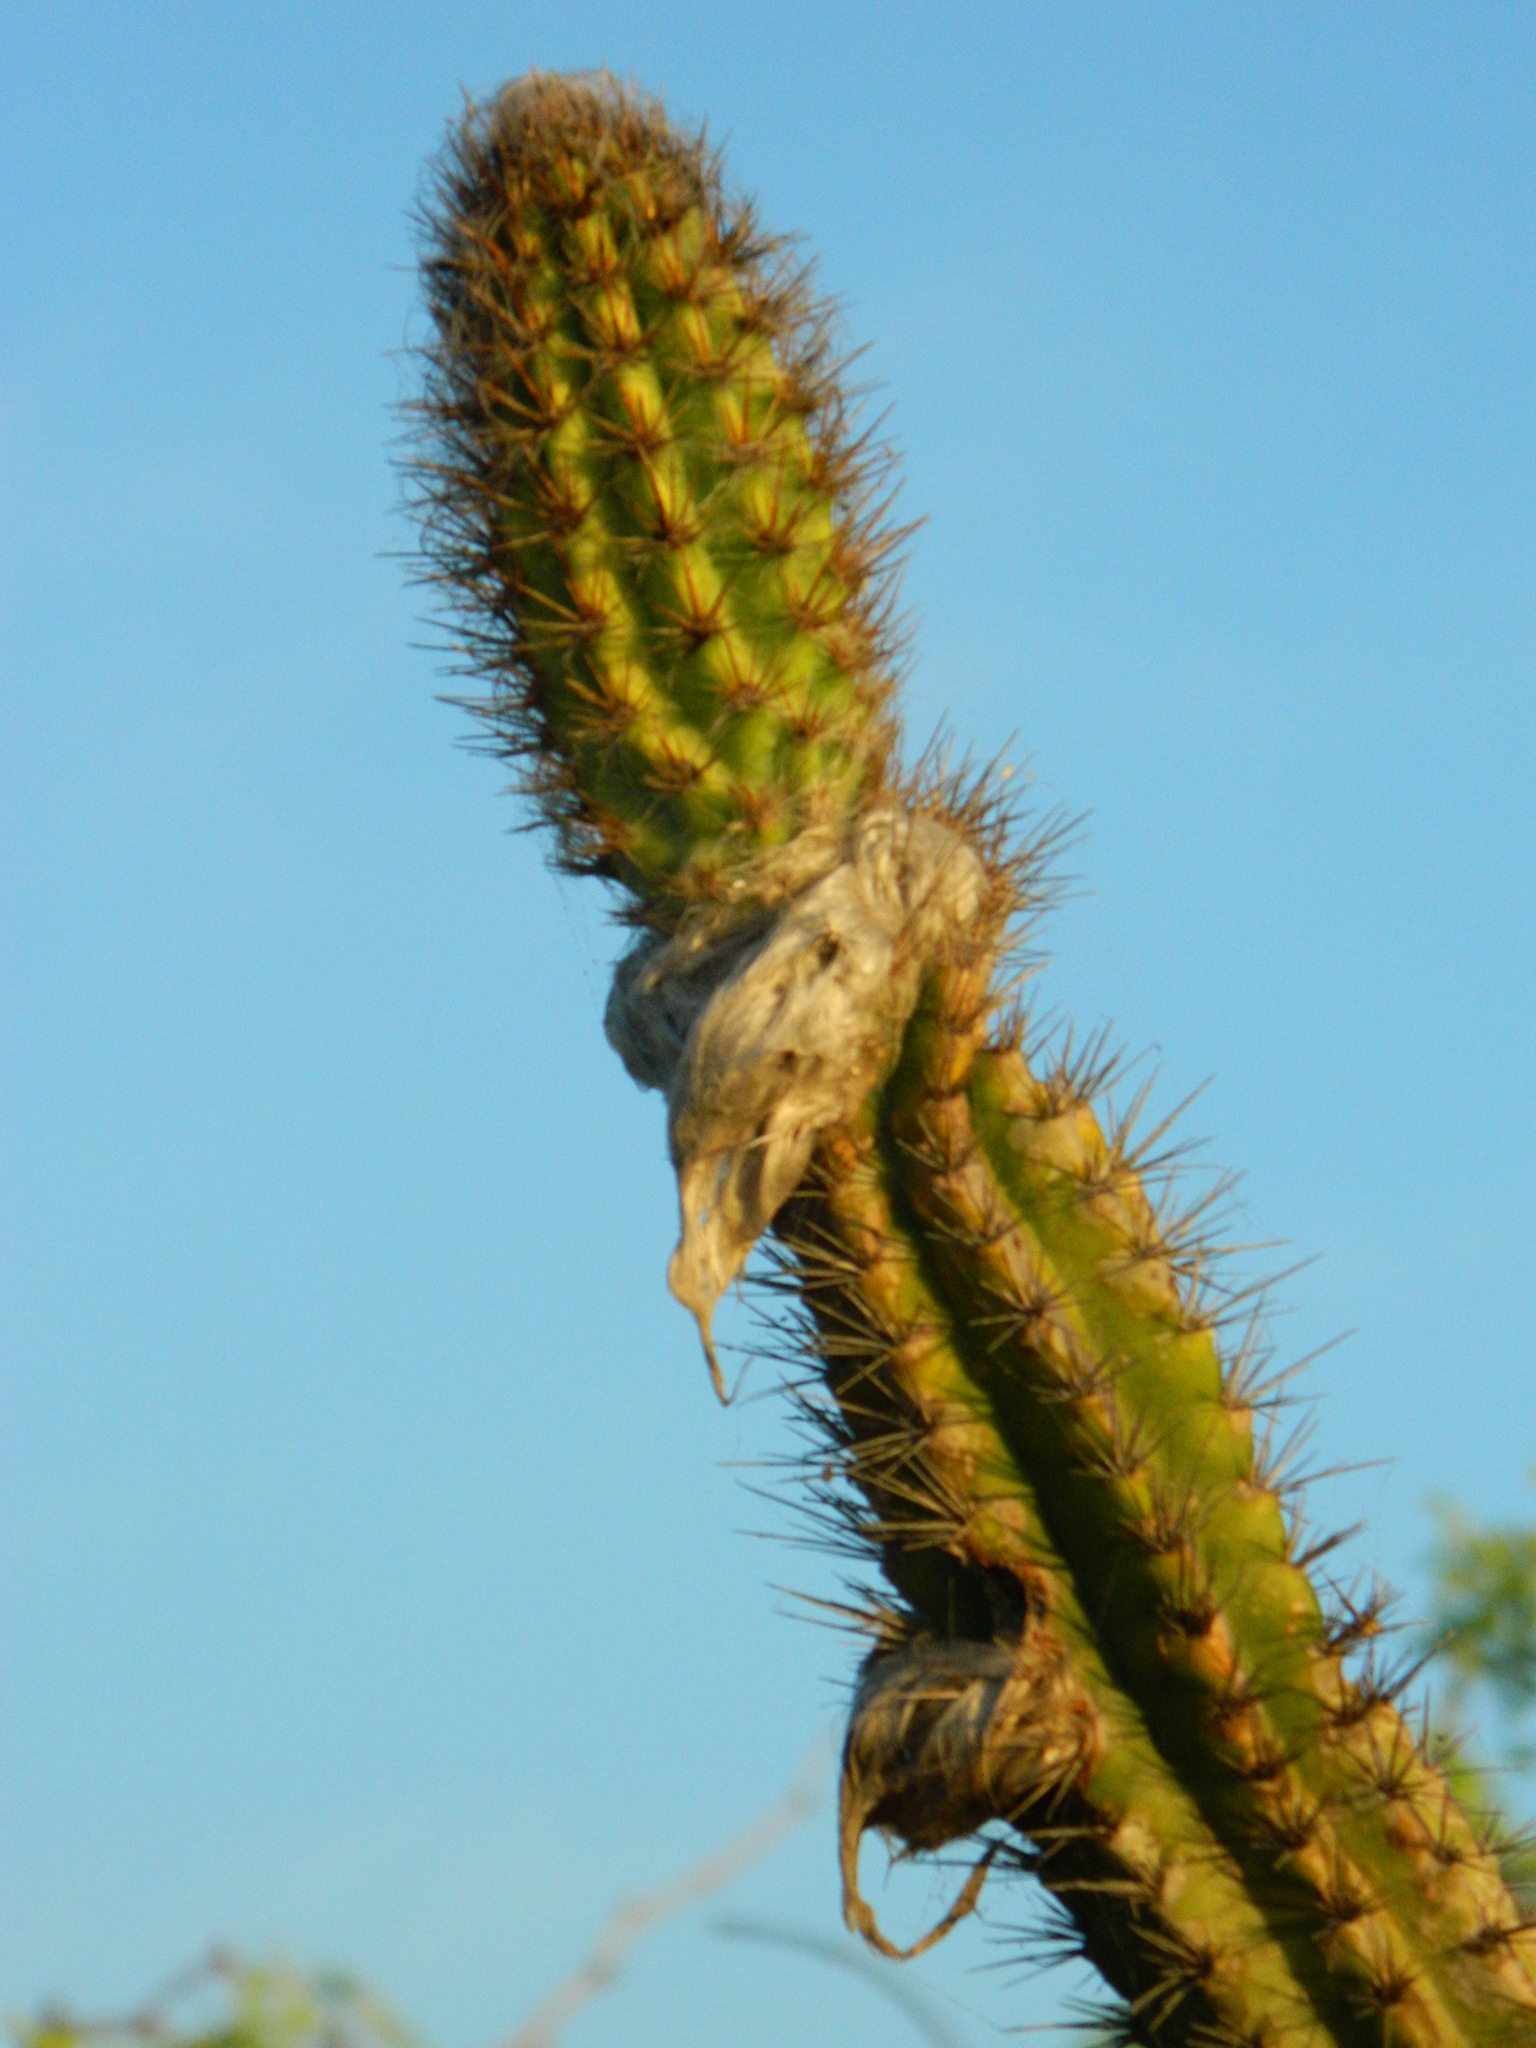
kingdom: Plantae
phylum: Tracheophyta
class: Magnoliopsida
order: Caryophyllales
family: Cactaceae
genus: Pilosocereus
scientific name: Pilosocereus leucocephalus
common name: Old man cactus
